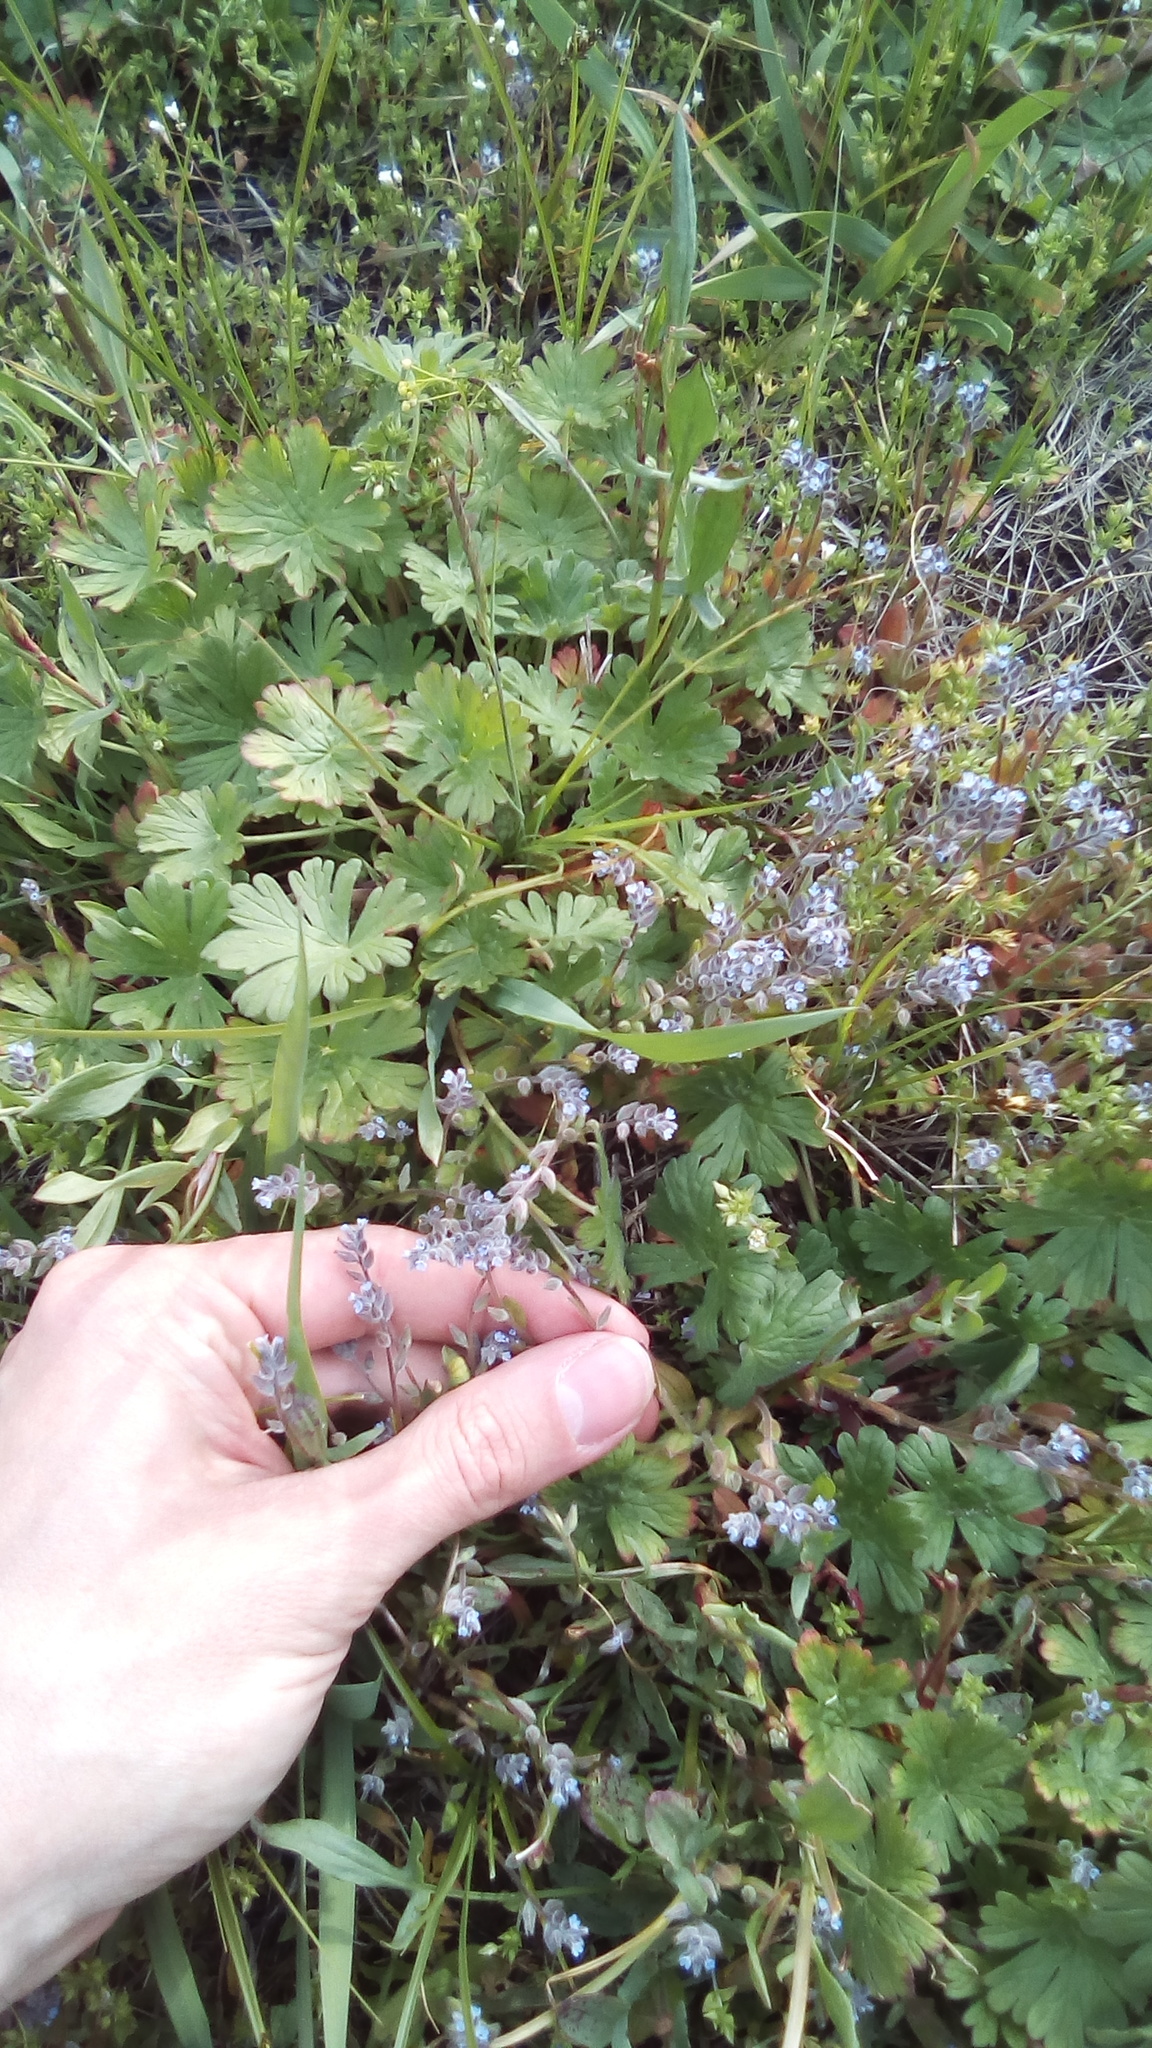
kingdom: Plantae
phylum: Tracheophyta
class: Magnoliopsida
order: Boraginales
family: Boraginaceae
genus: Myosotis
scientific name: Myosotis stricta
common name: Strict forget-me-not
